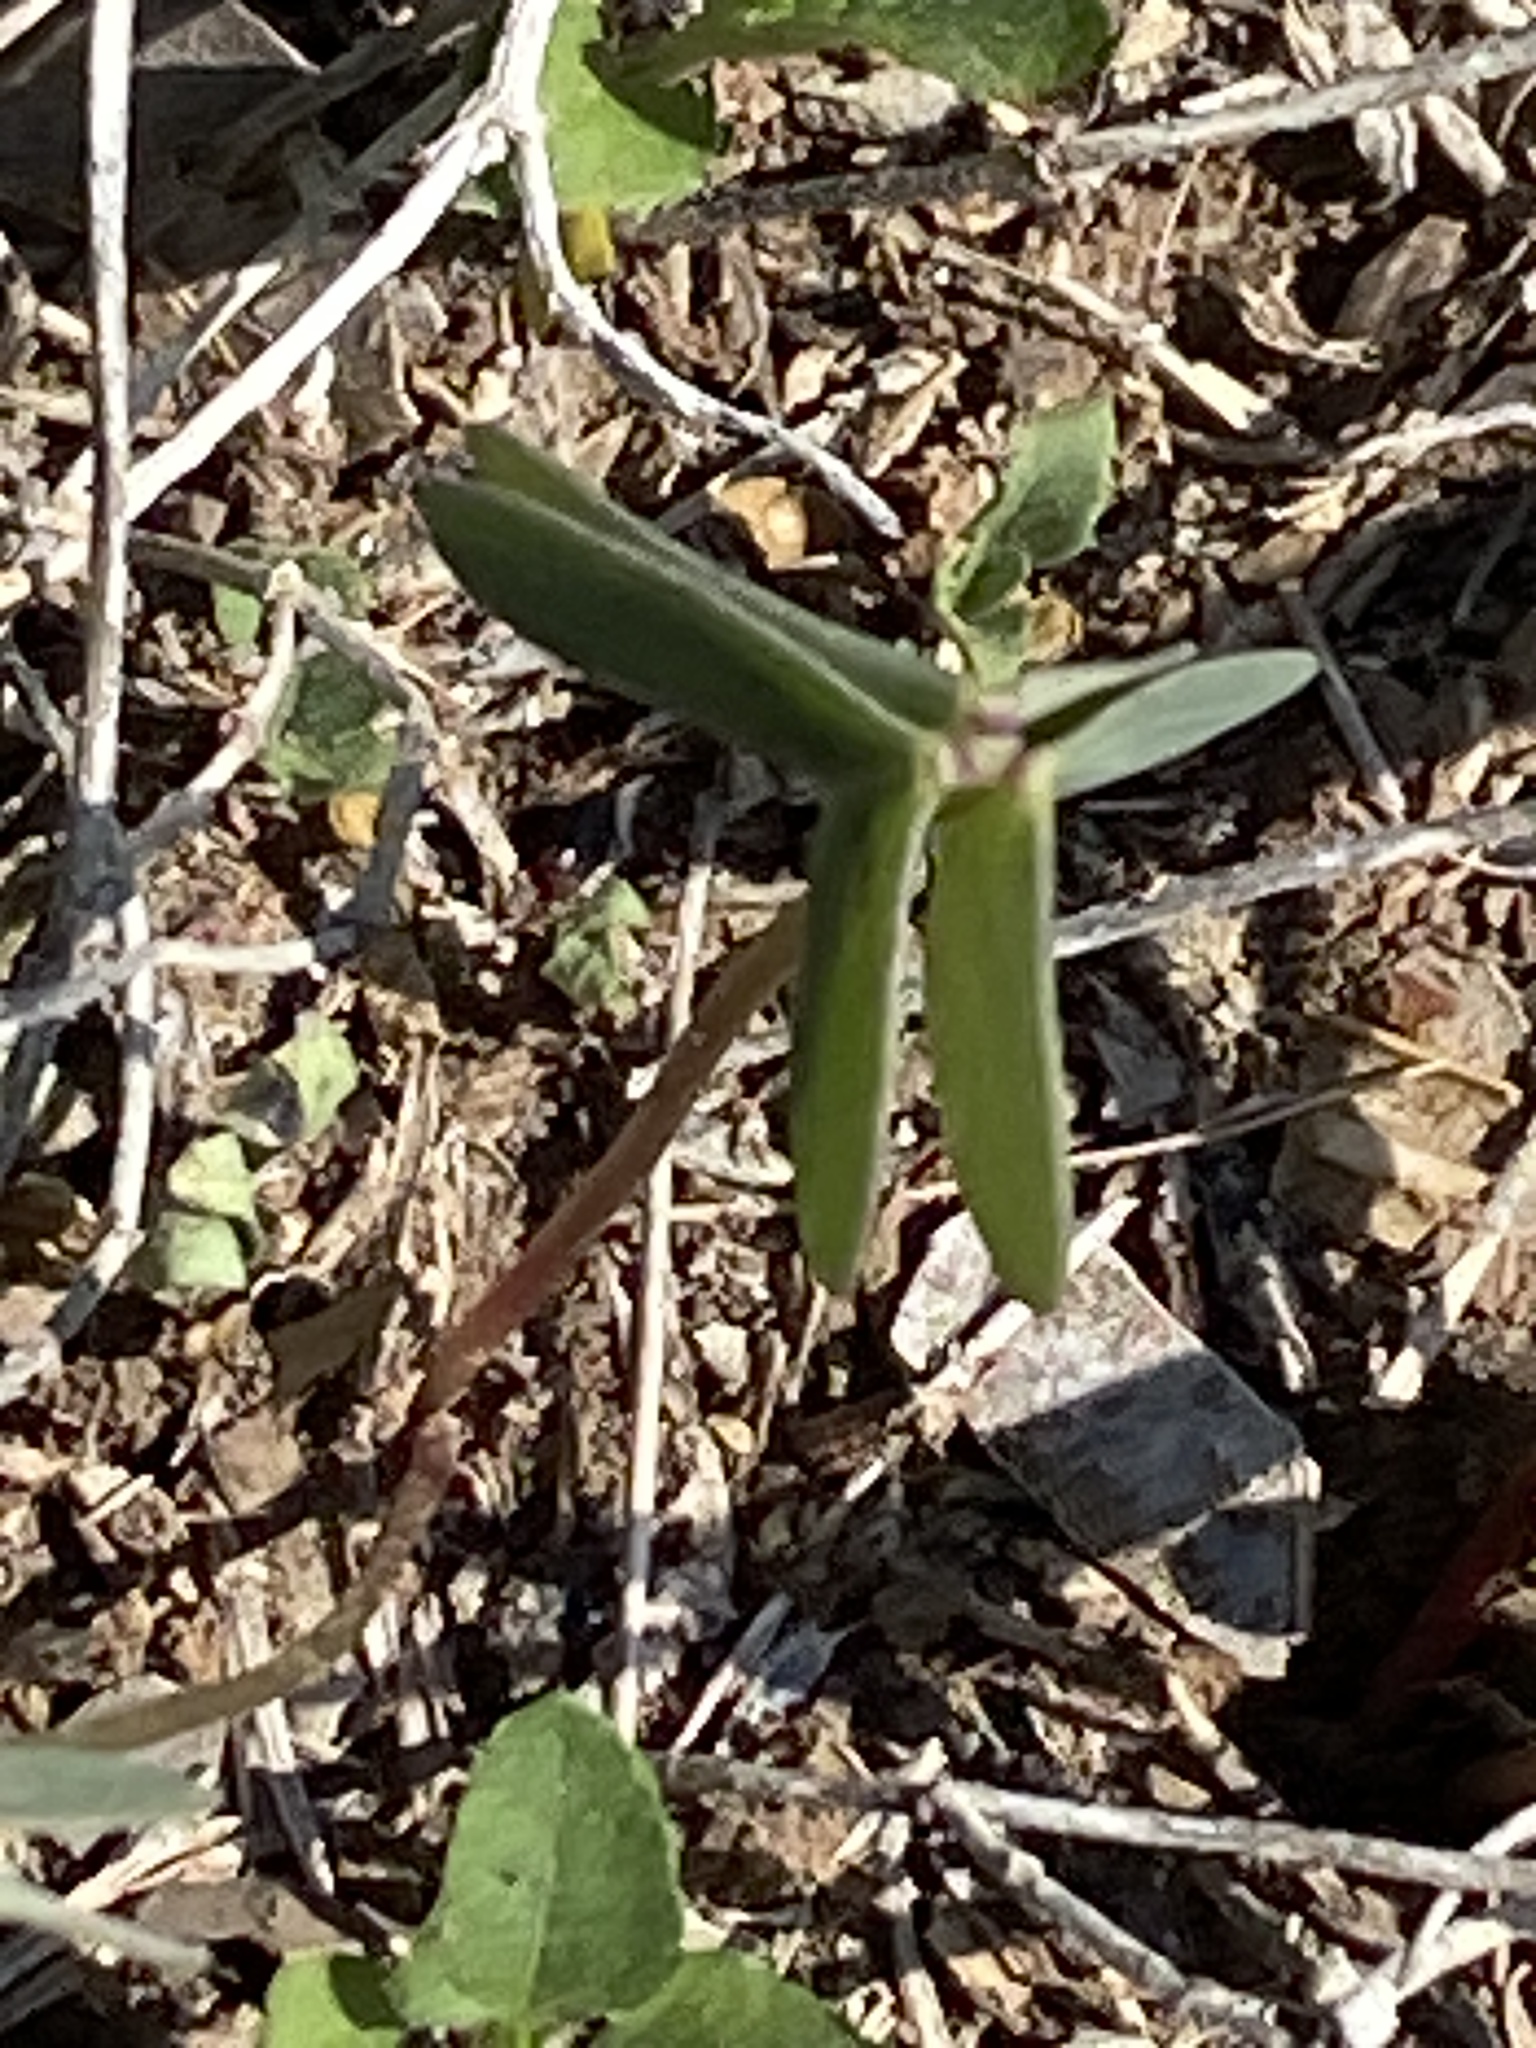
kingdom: Plantae
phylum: Tracheophyta
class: Magnoliopsida
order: Oxalidales
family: Oxalidaceae
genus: Oxalis
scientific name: Oxalis drummondii
